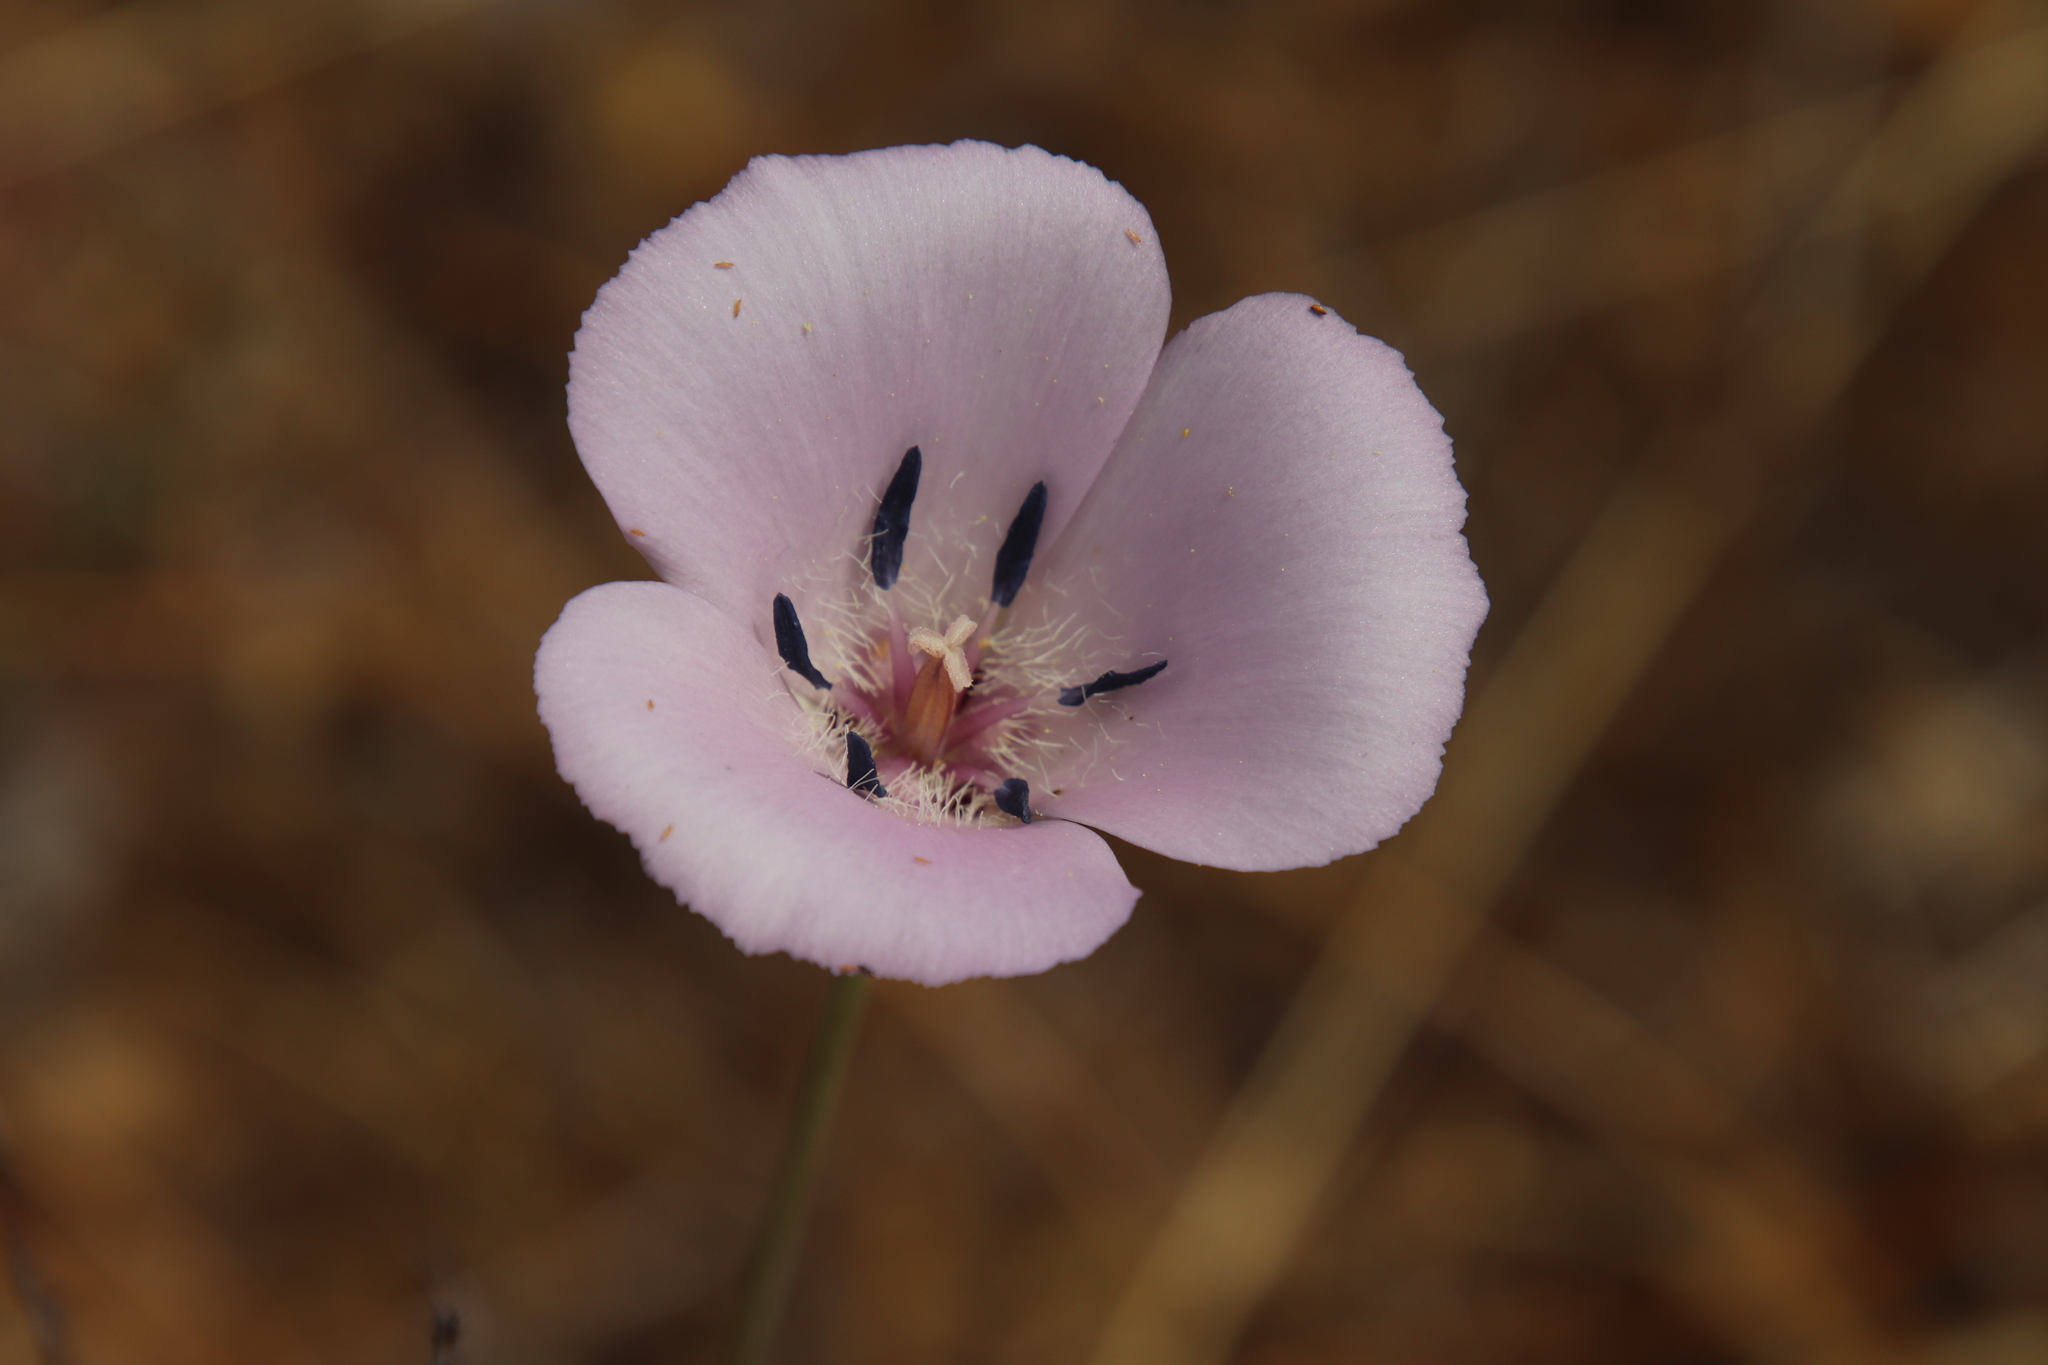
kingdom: Plantae
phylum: Tracheophyta
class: Liliopsida
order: Liliales
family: Liliaceae
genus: Calochortus
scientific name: Calochortus splendens
